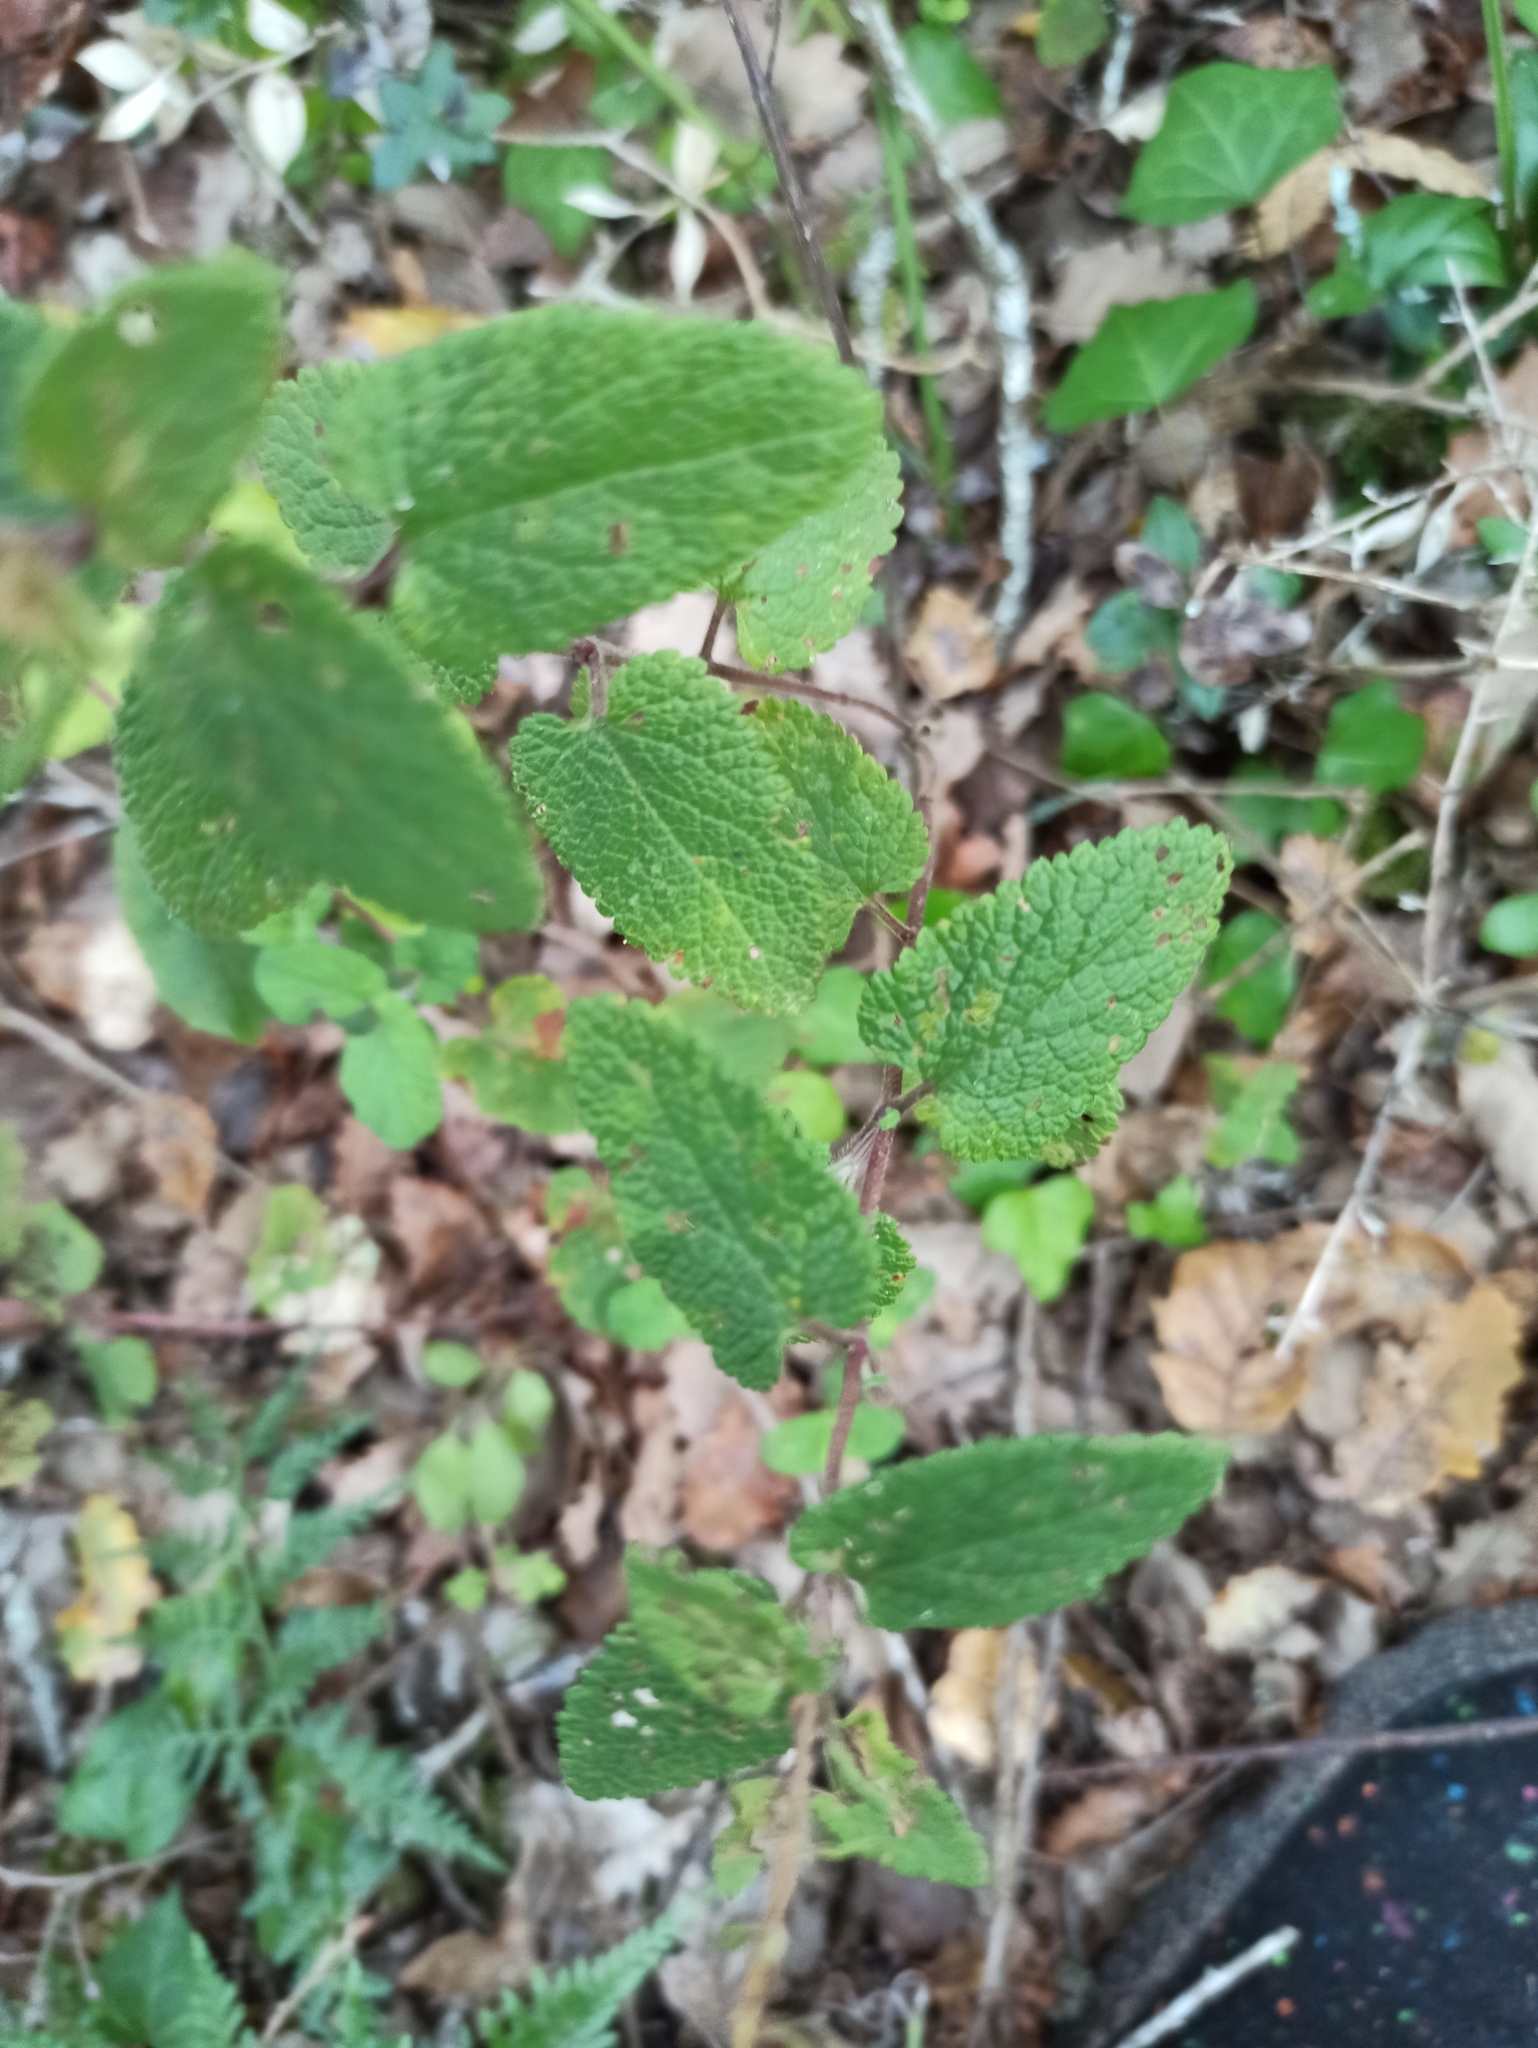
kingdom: Plantae
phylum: Tracheophyta
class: Magnoliopsida
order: Lamiales
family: Lamiaceae
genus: Teucrium
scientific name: Teucrium scorodonia
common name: Woodland germander
